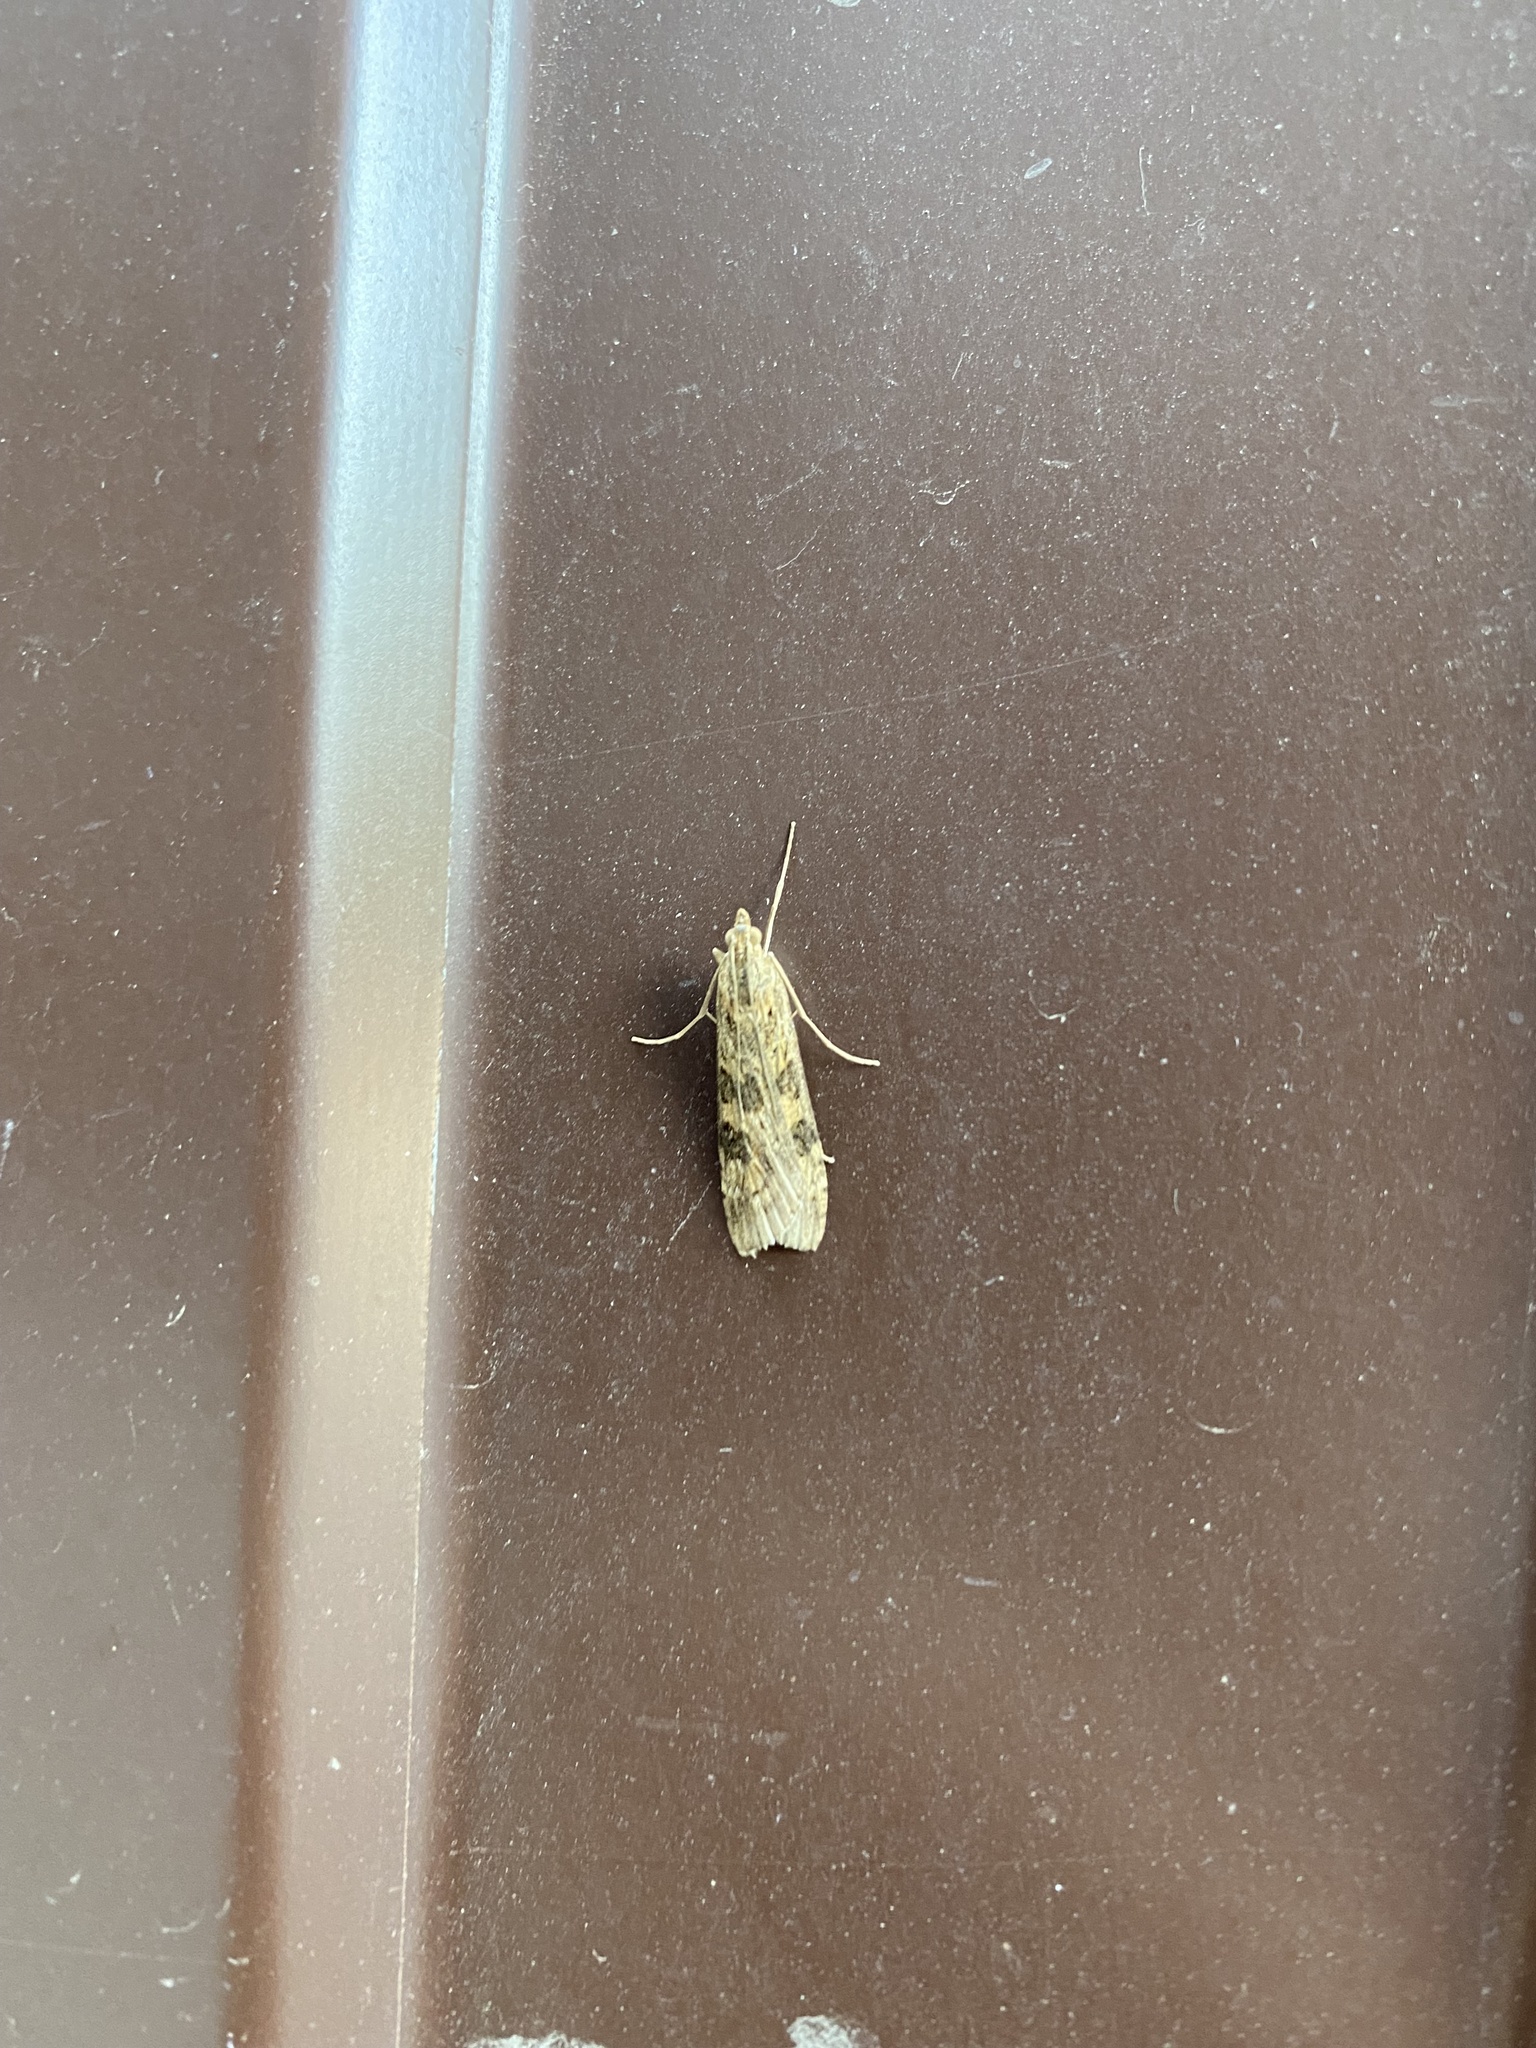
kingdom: Animalia
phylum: Arthropoda
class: Insecta
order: Lepidoptera
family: Crambidae
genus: Nomophila
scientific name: Nomophila noctuella
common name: Rush veneer
